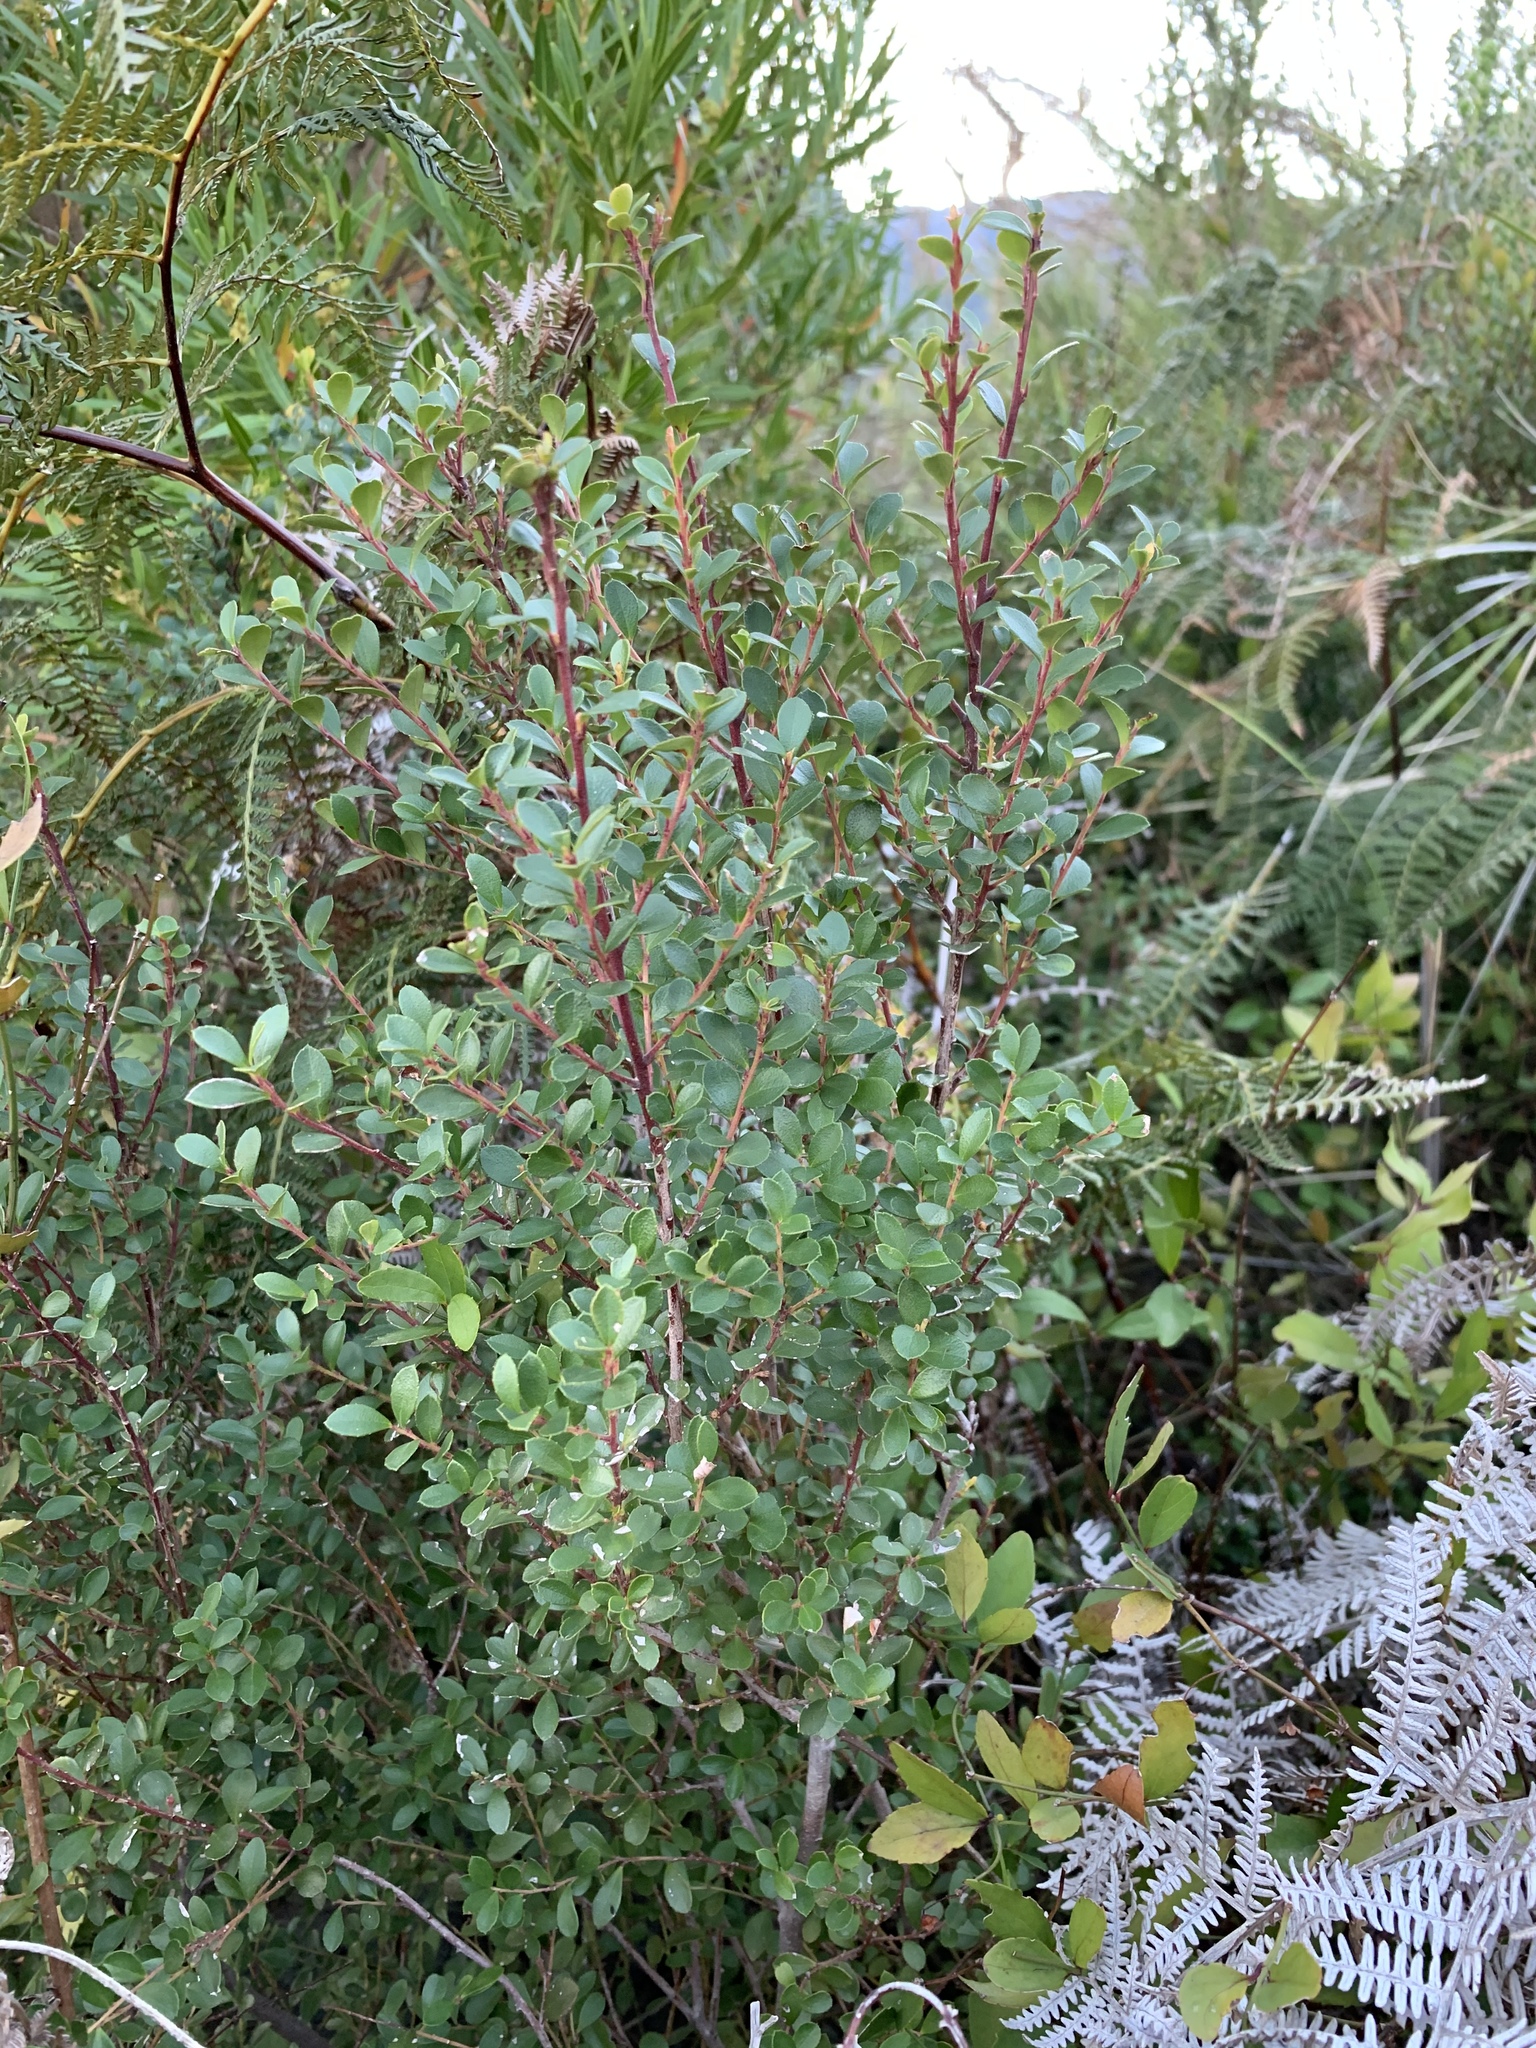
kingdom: Plantae
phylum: Tracheophyta
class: Magnoliopsida
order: Ericales
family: Primulaceae
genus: Myrsine
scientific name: Myrsine africana
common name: African-boxwood
